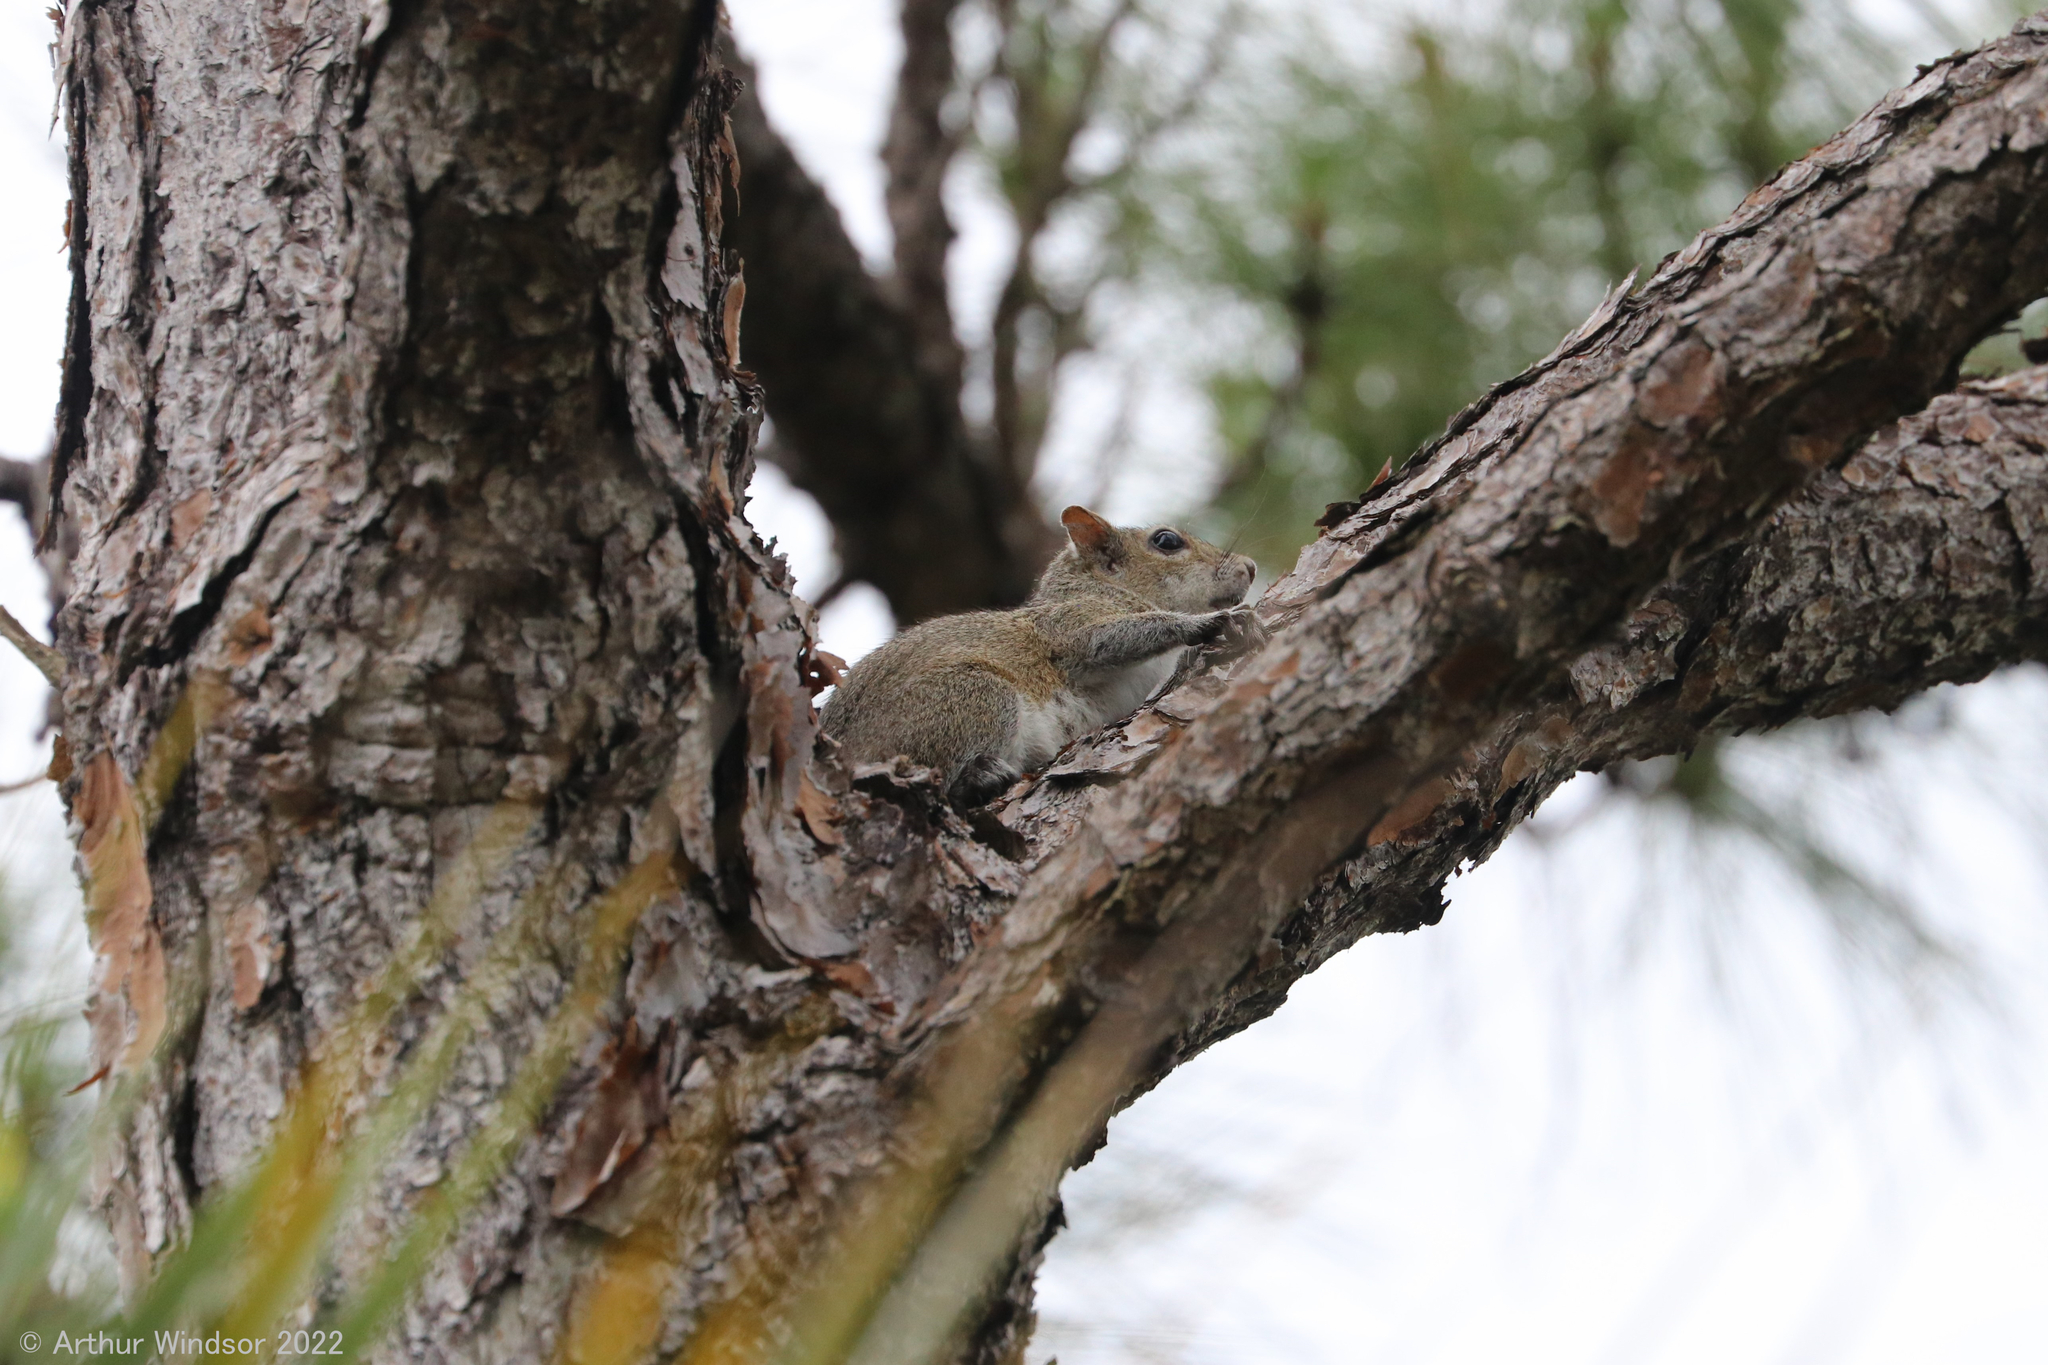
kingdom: Animalia
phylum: Chordata
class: Mammalia
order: Rodentia
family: Sciuridae
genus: Sciurus
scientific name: Sciurus carolinensis
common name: Eastern gray squirrel
